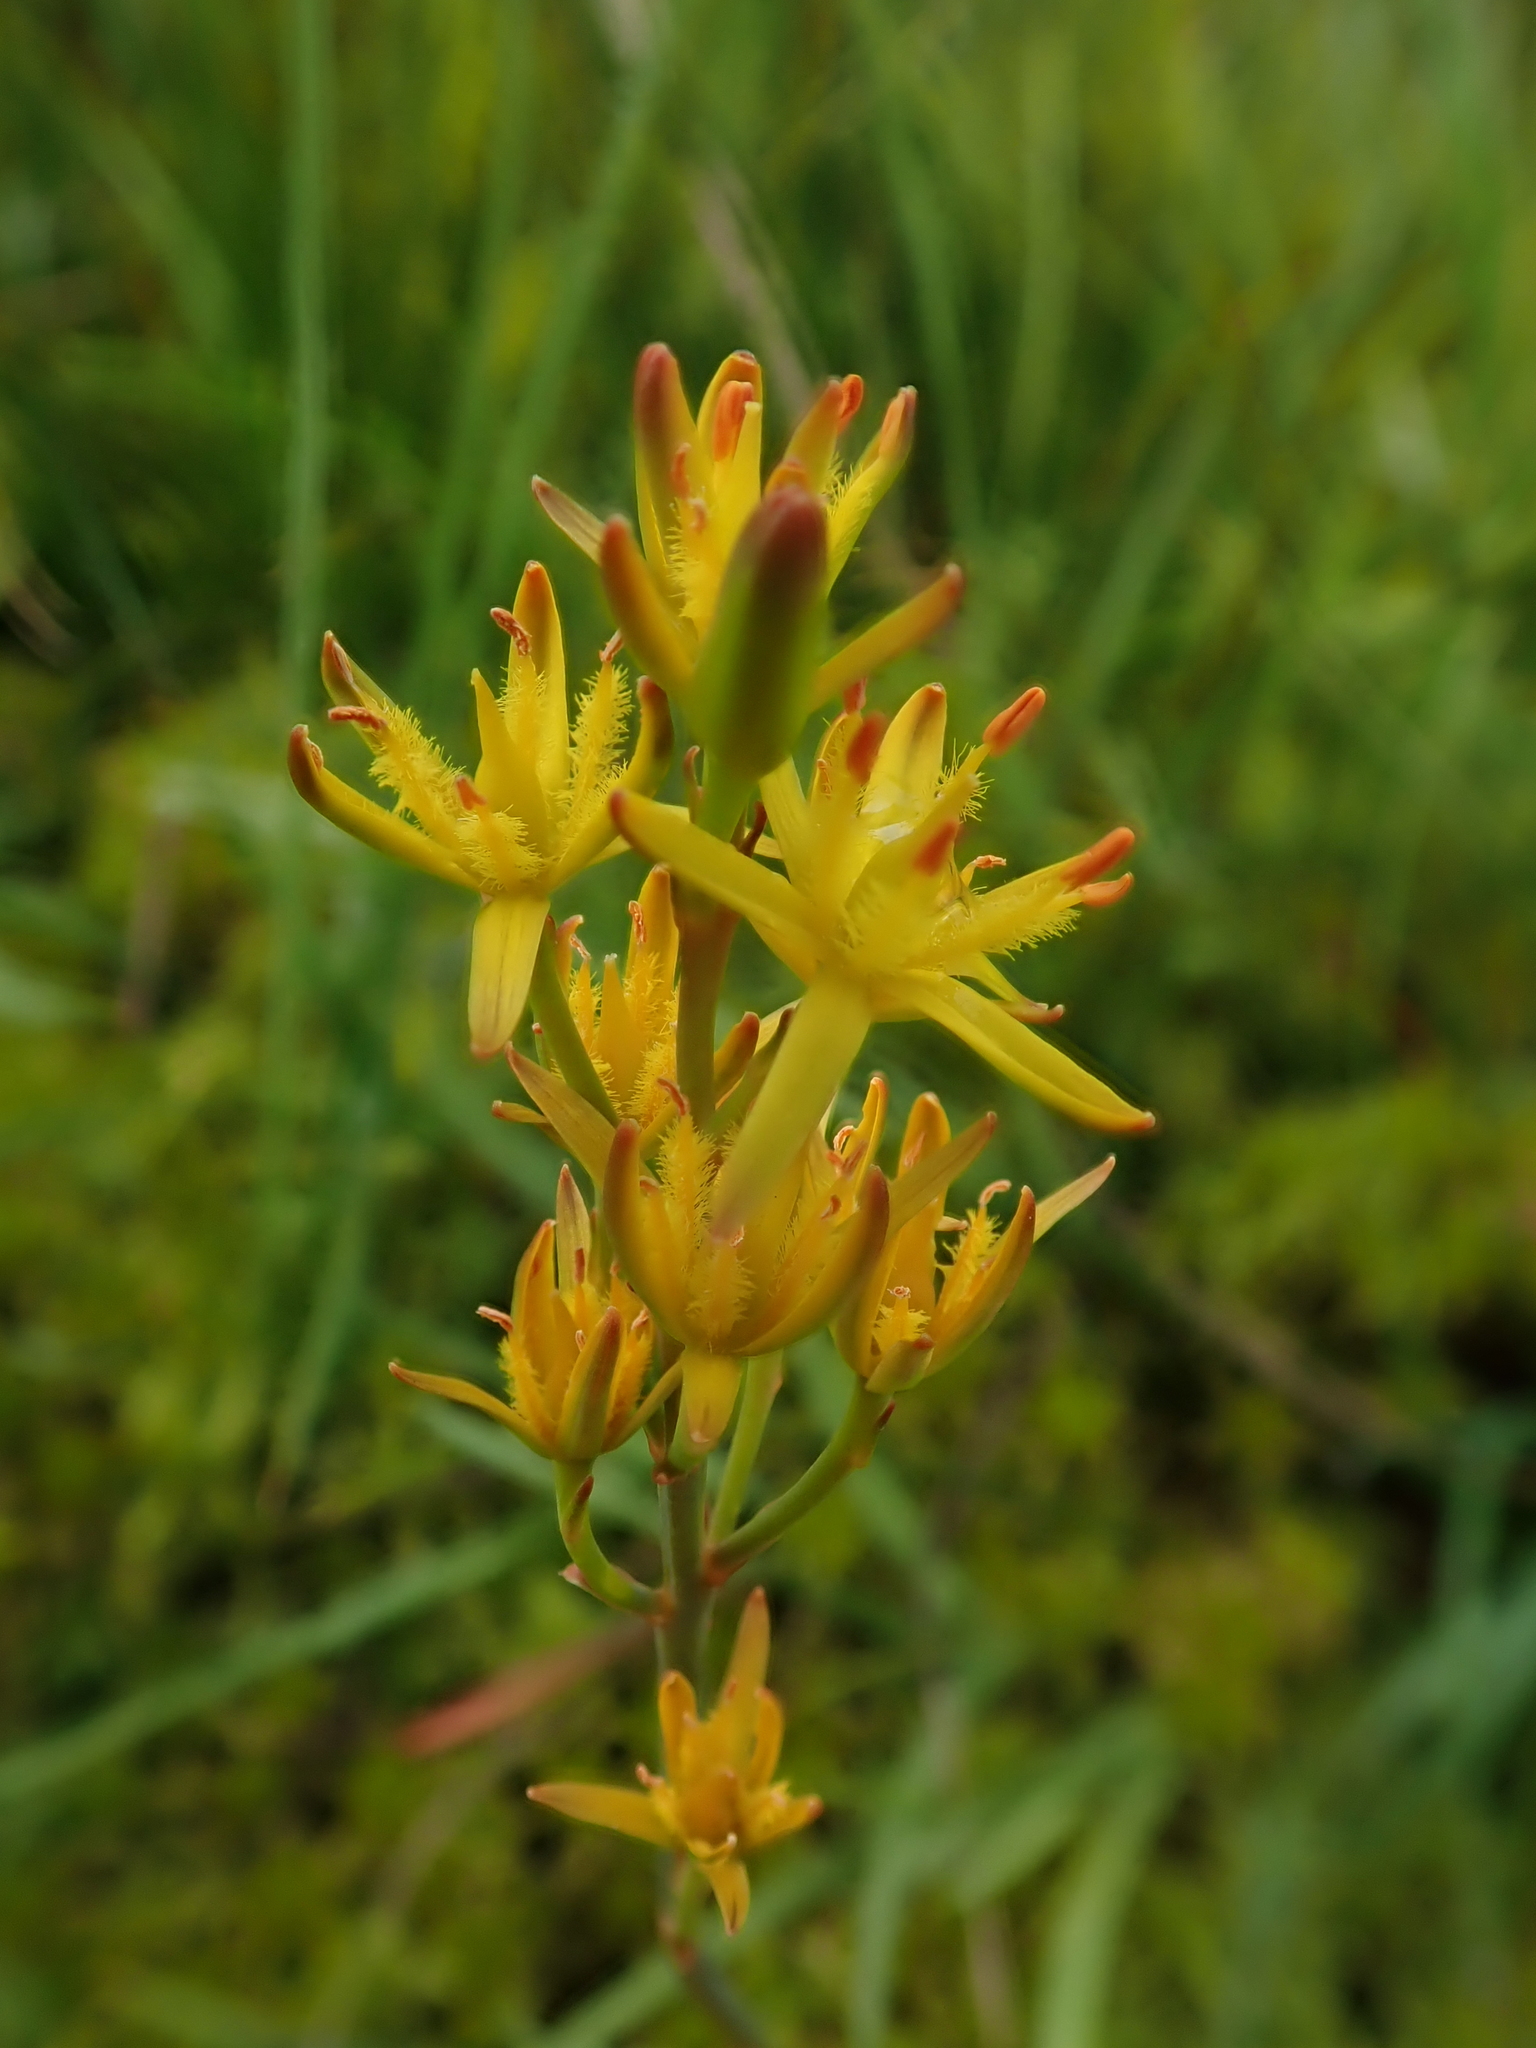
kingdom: Plantae
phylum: Tracheophyta
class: Liliopsida
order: Dioscoreales
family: Nartheciaceae
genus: Narthecium
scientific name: Narthecium ossifragum
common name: Bog asphodel
